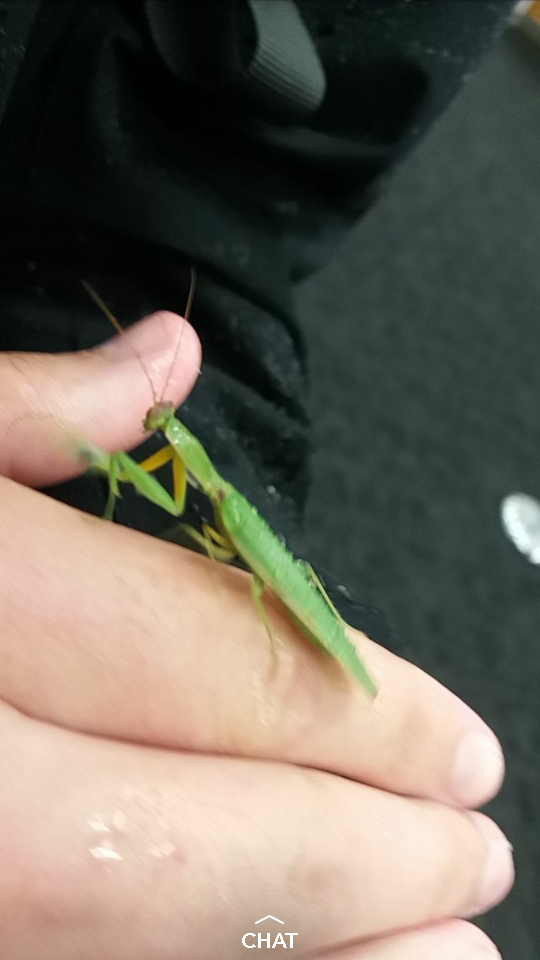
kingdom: Animalia
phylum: Arthropoda
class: Insecta
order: Mantodea
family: Mantidae
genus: Orthodera
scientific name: Orthodera novaezealandiae
